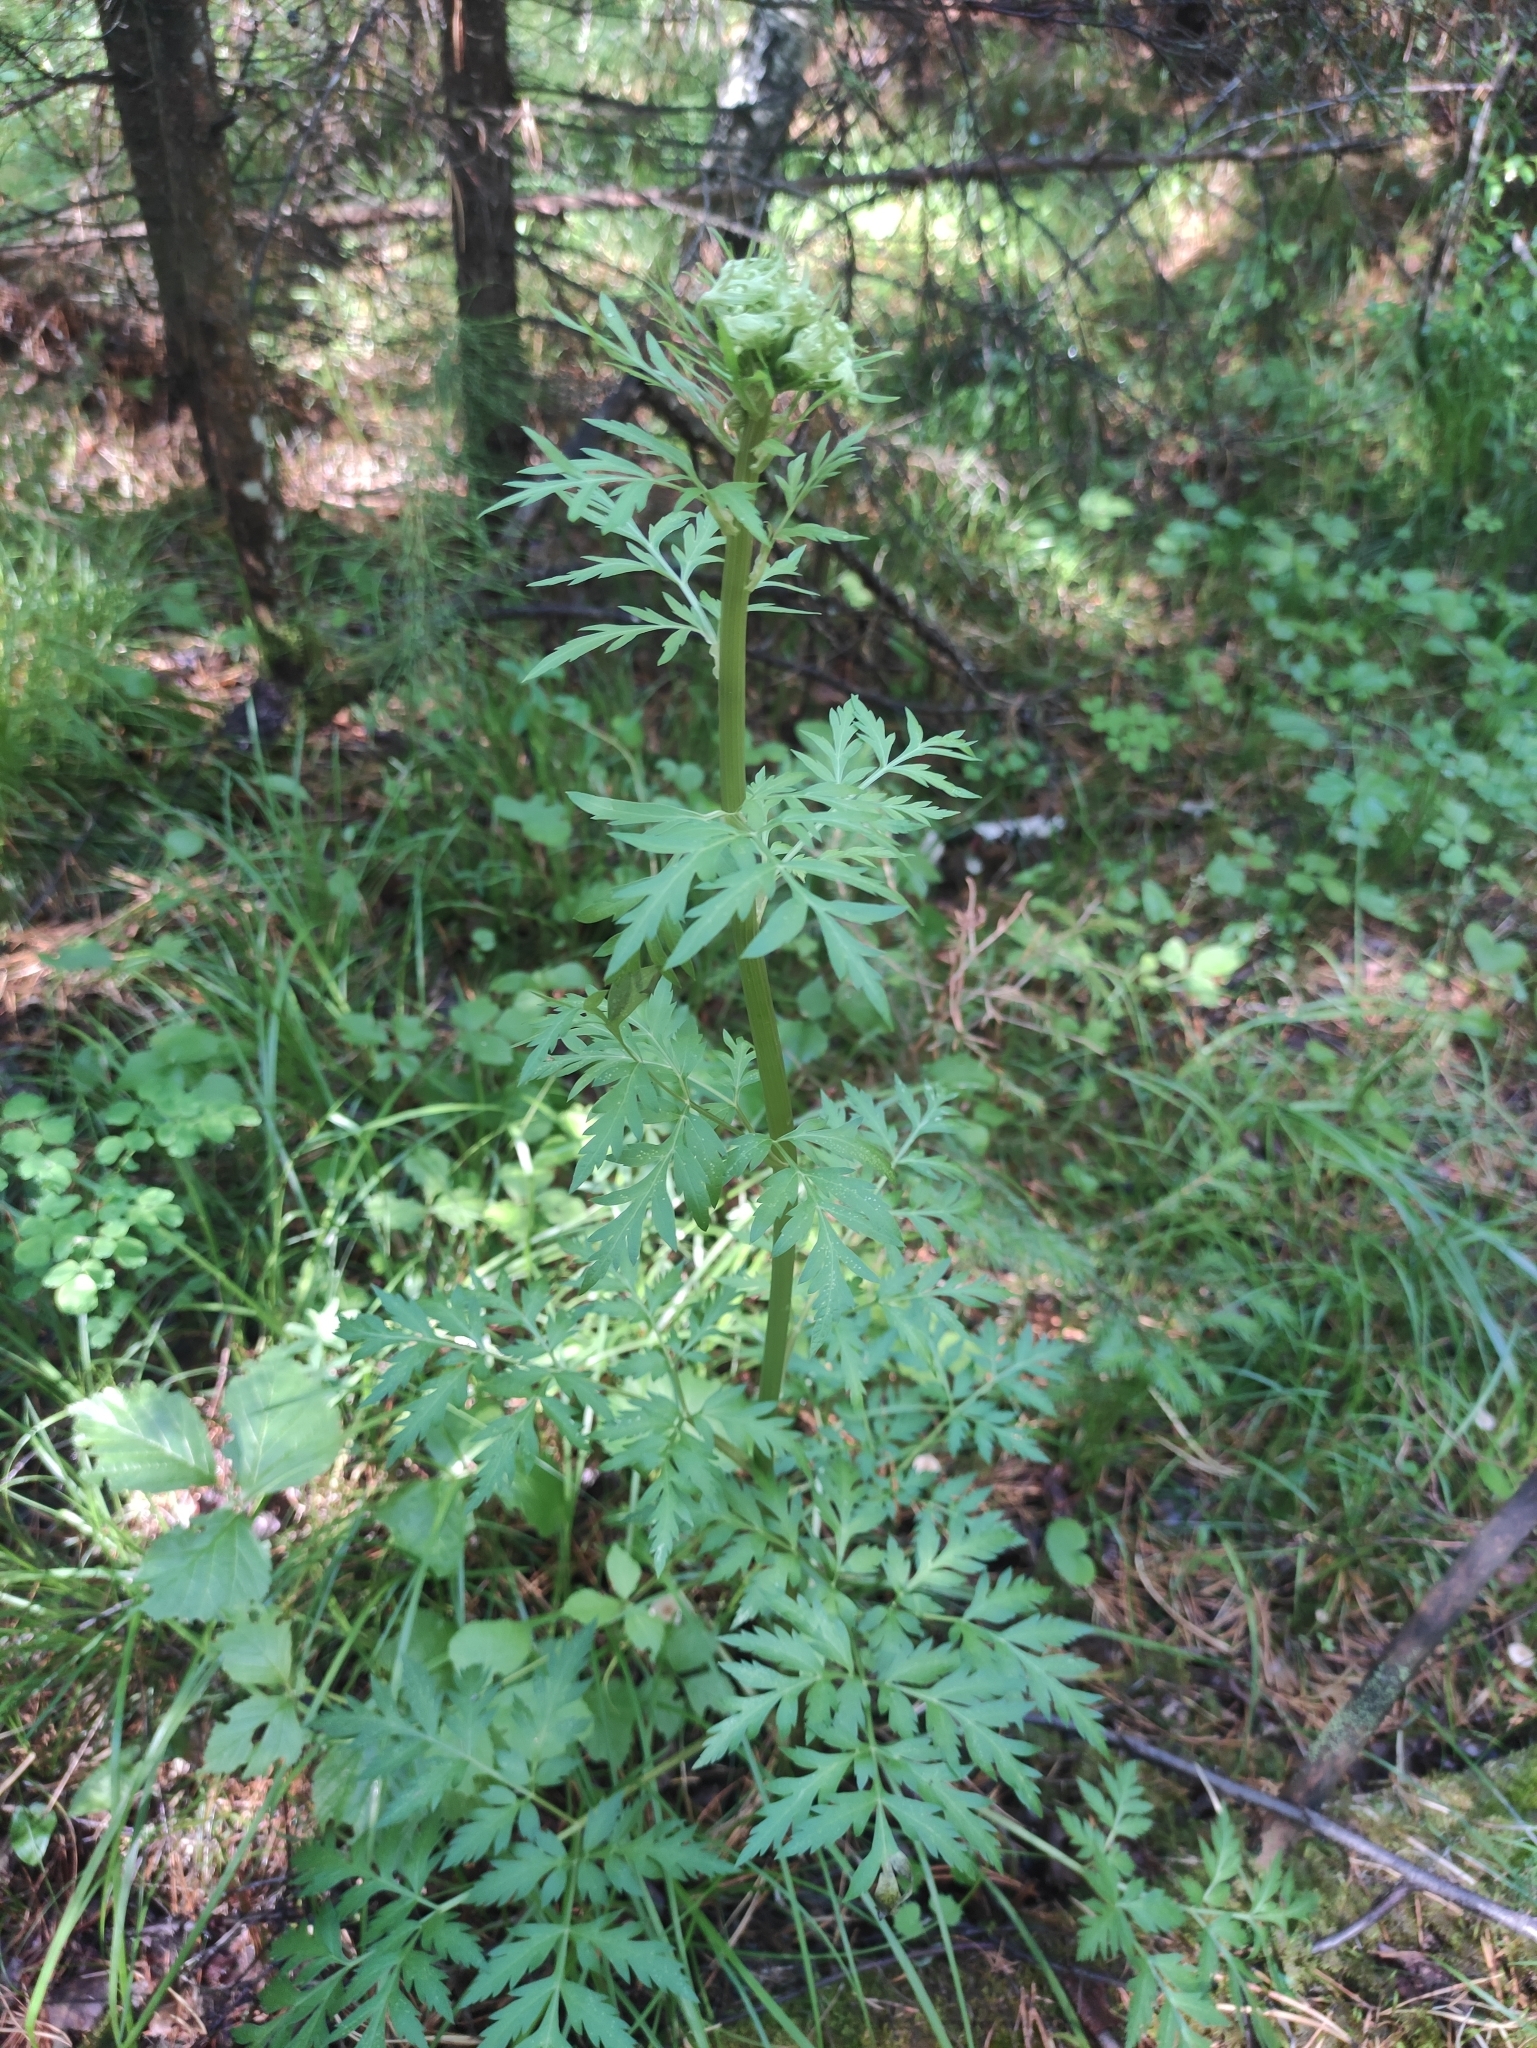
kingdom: Plantae
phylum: Tracheophyta
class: Magnoliopsida
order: Apiales
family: Apiaceae
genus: Pleurospermum
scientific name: Pleurospermum uralense
